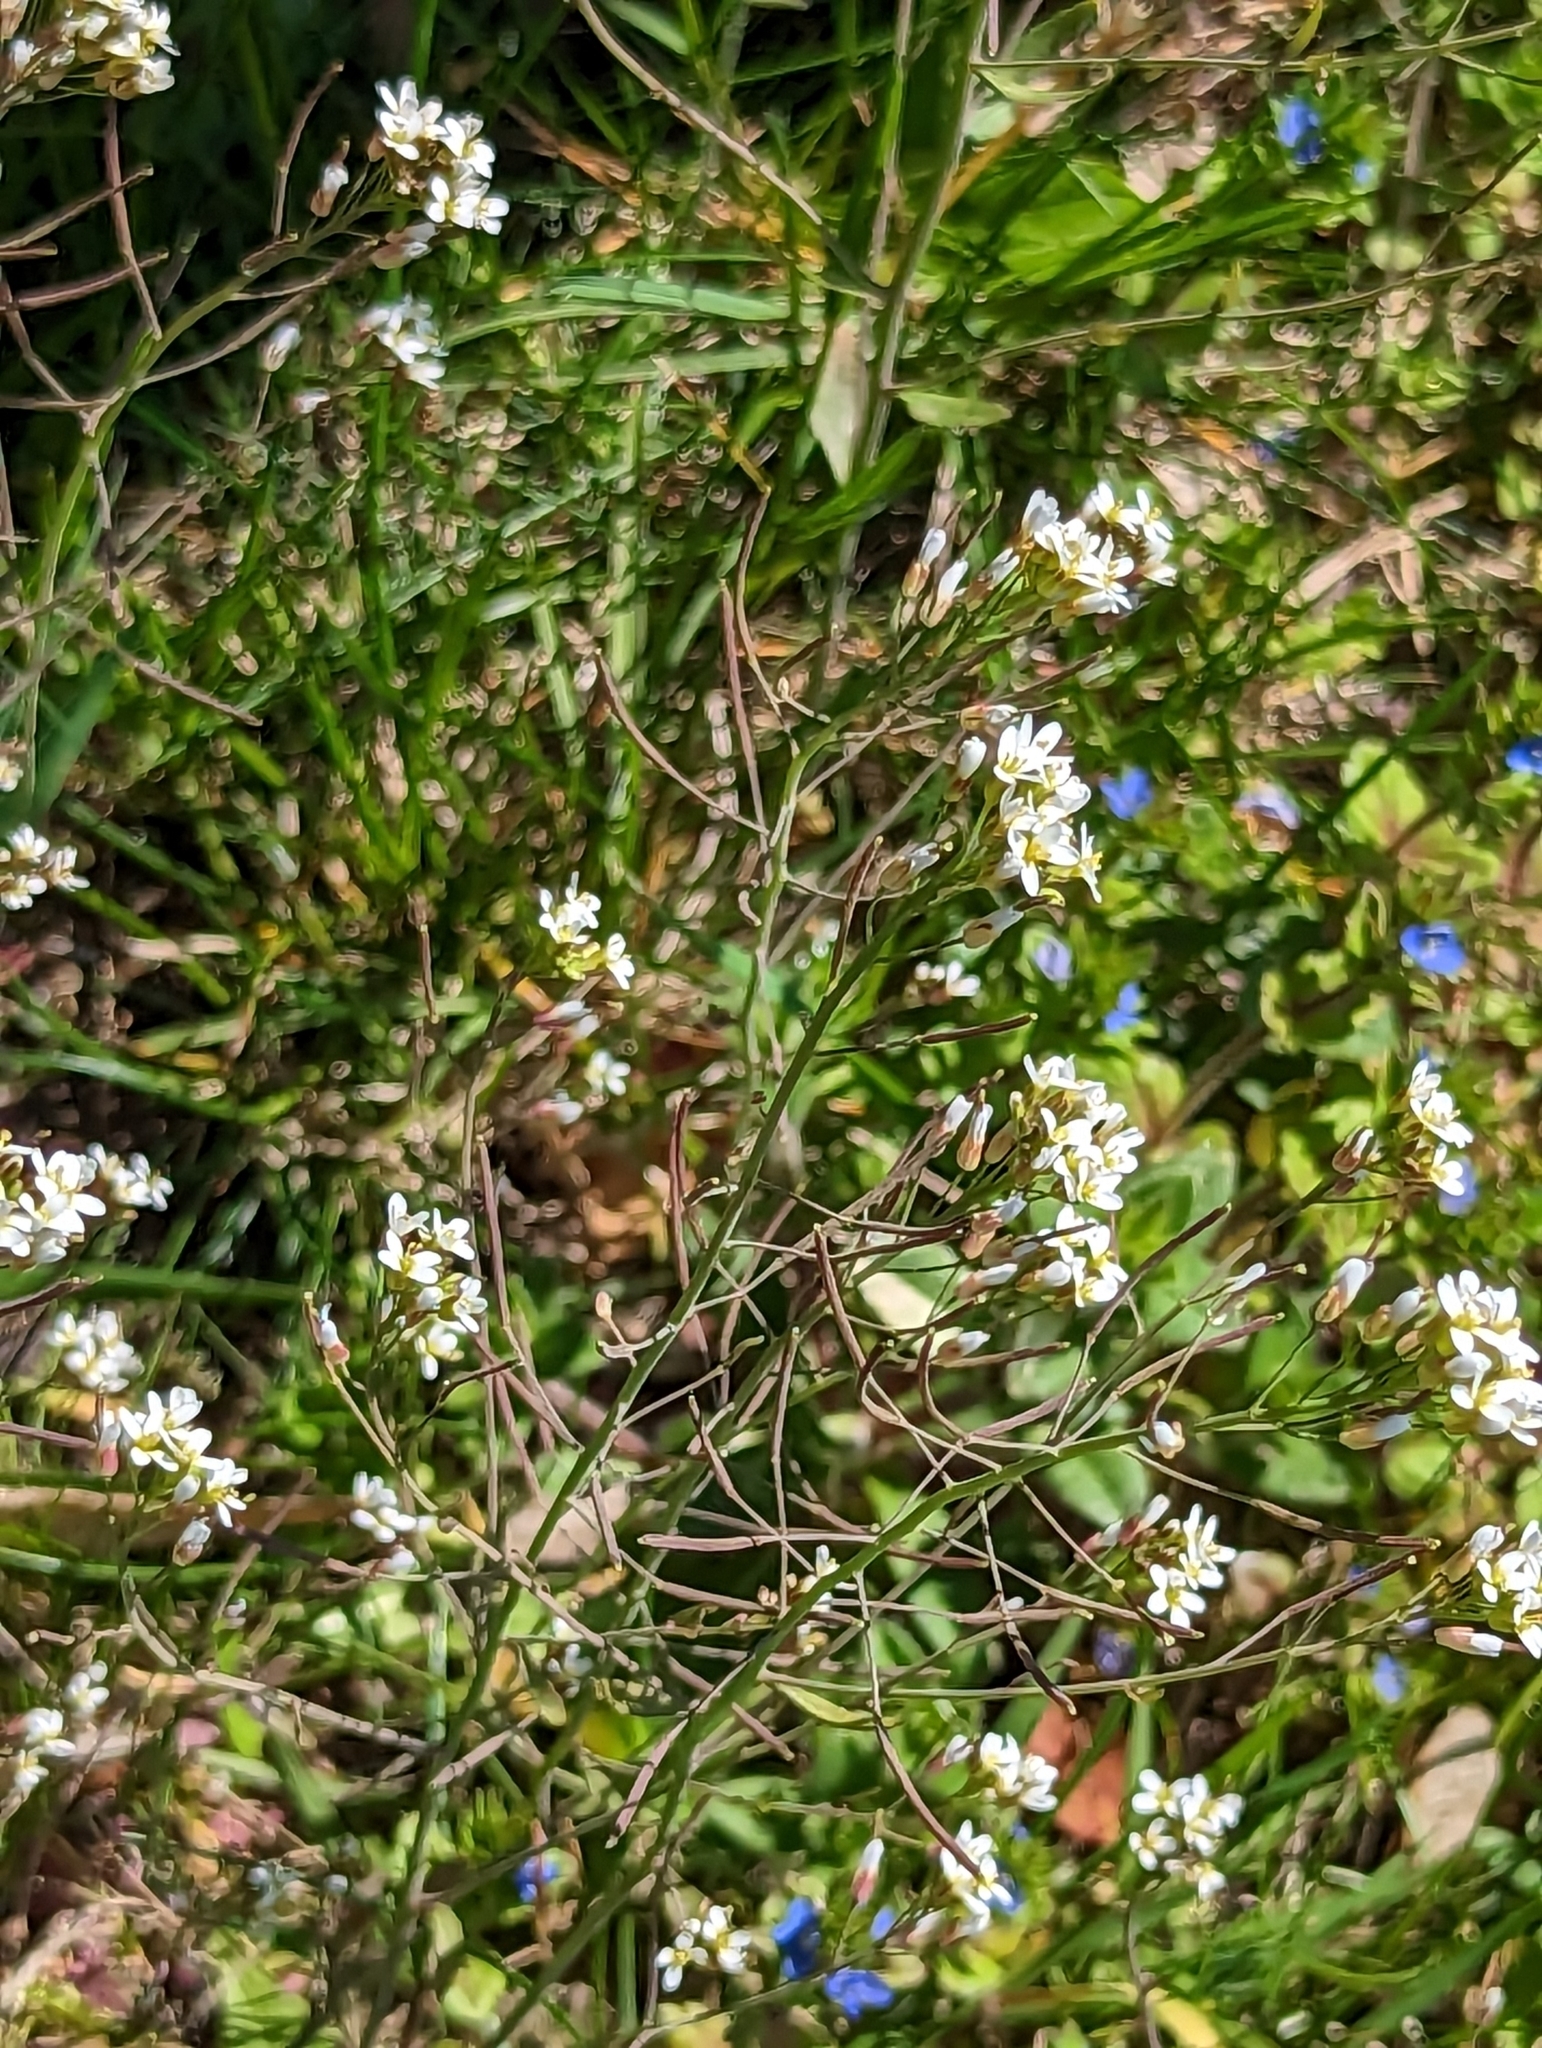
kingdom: Plantae
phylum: Tracheophyta
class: Magnoliopsida
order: Brassicales
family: Brassicaceae
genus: Arabidopsis
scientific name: Arabidopsis thaliana
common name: Thale cress
